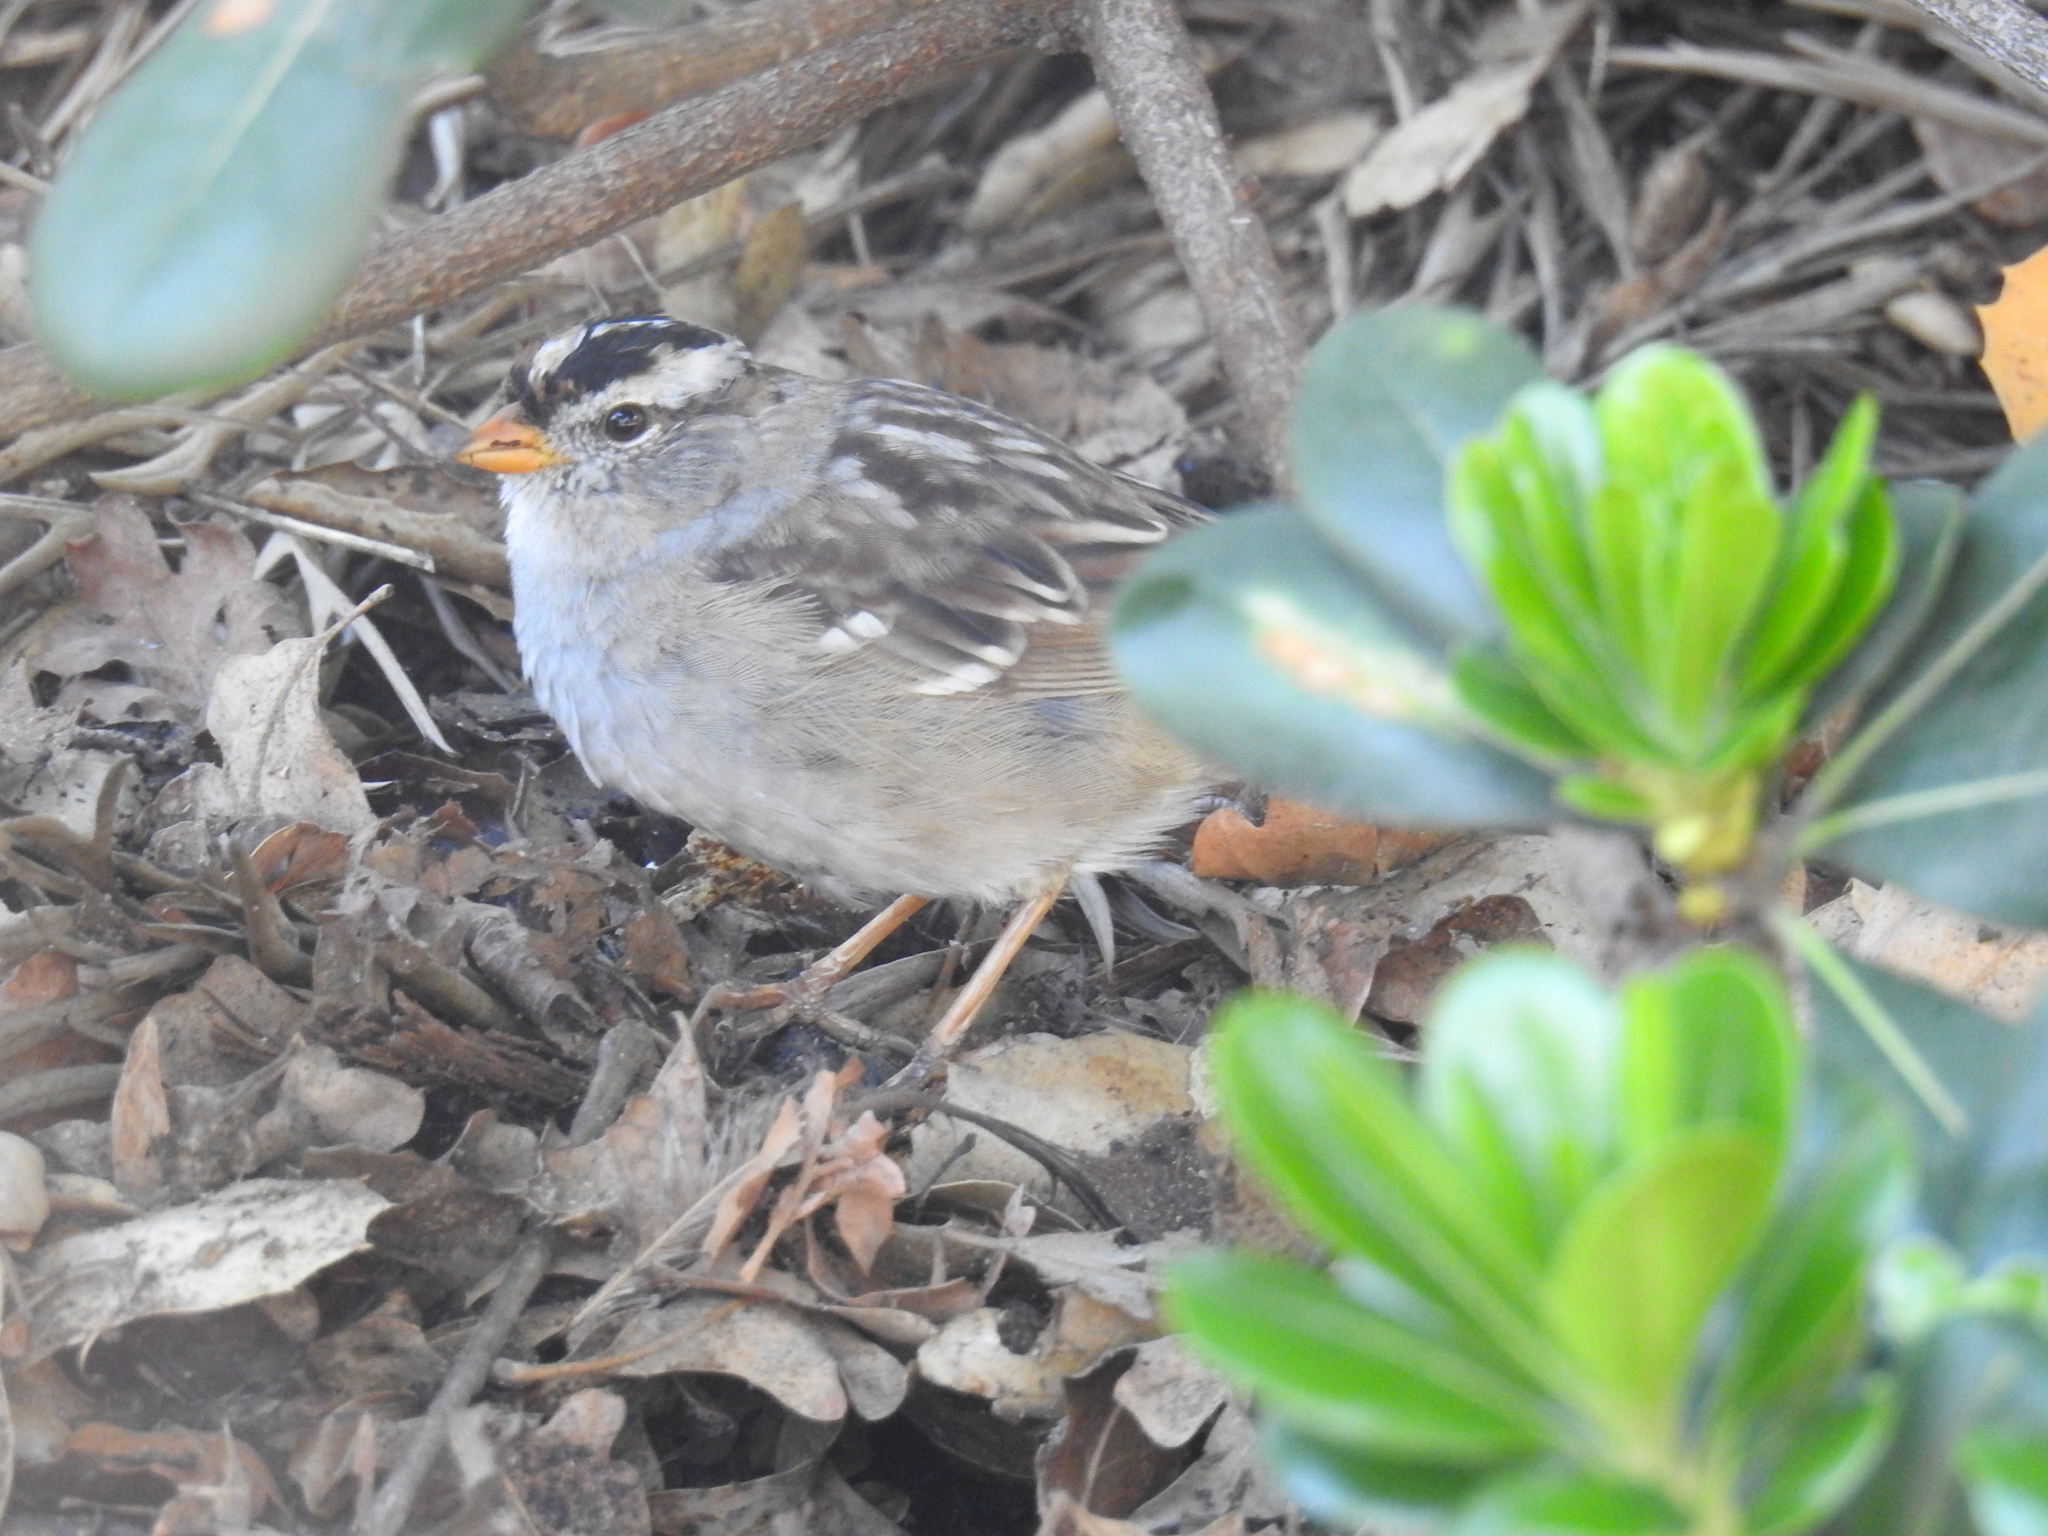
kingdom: Animalia
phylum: Chordata
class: Aves
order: Passeriformes
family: Passerellidae
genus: Zonotrichia
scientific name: Zonotrichia leucophrys
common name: White-crowned sparrow
